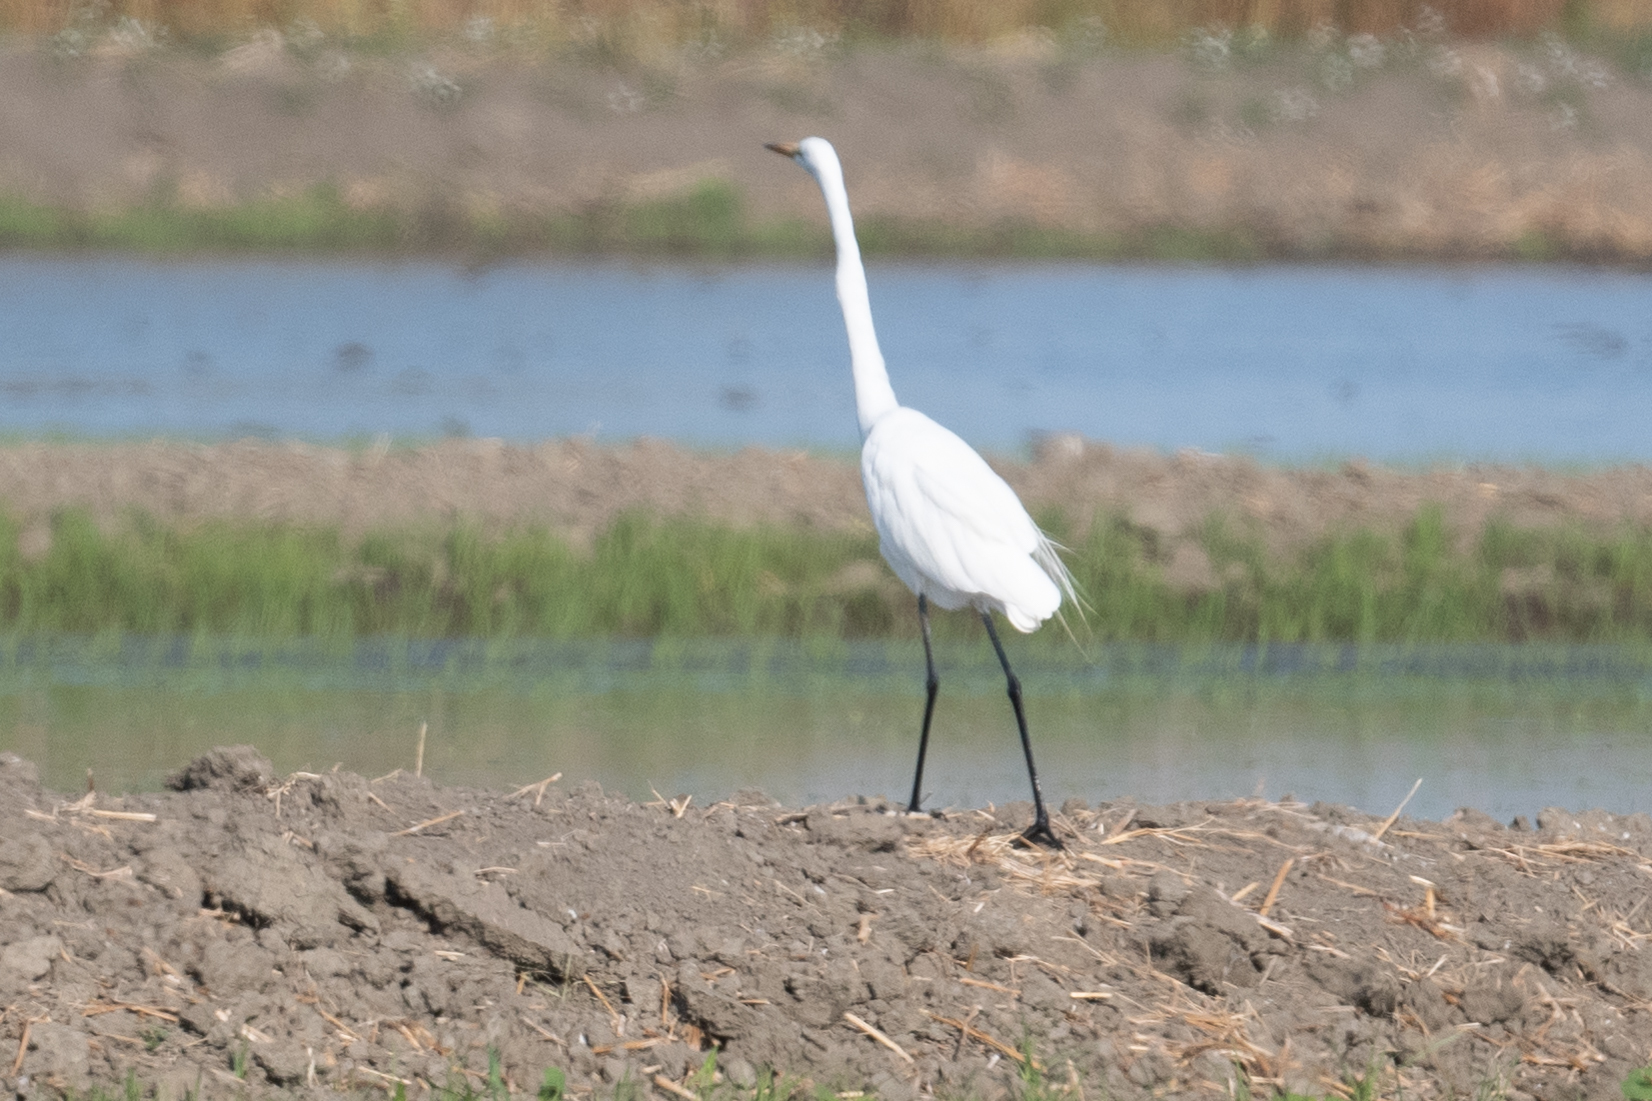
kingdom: Animalia
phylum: Chordata
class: Aves
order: Pelecaniformes
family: Ardeidae
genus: Ardea
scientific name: Ardea alba
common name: Great egret
